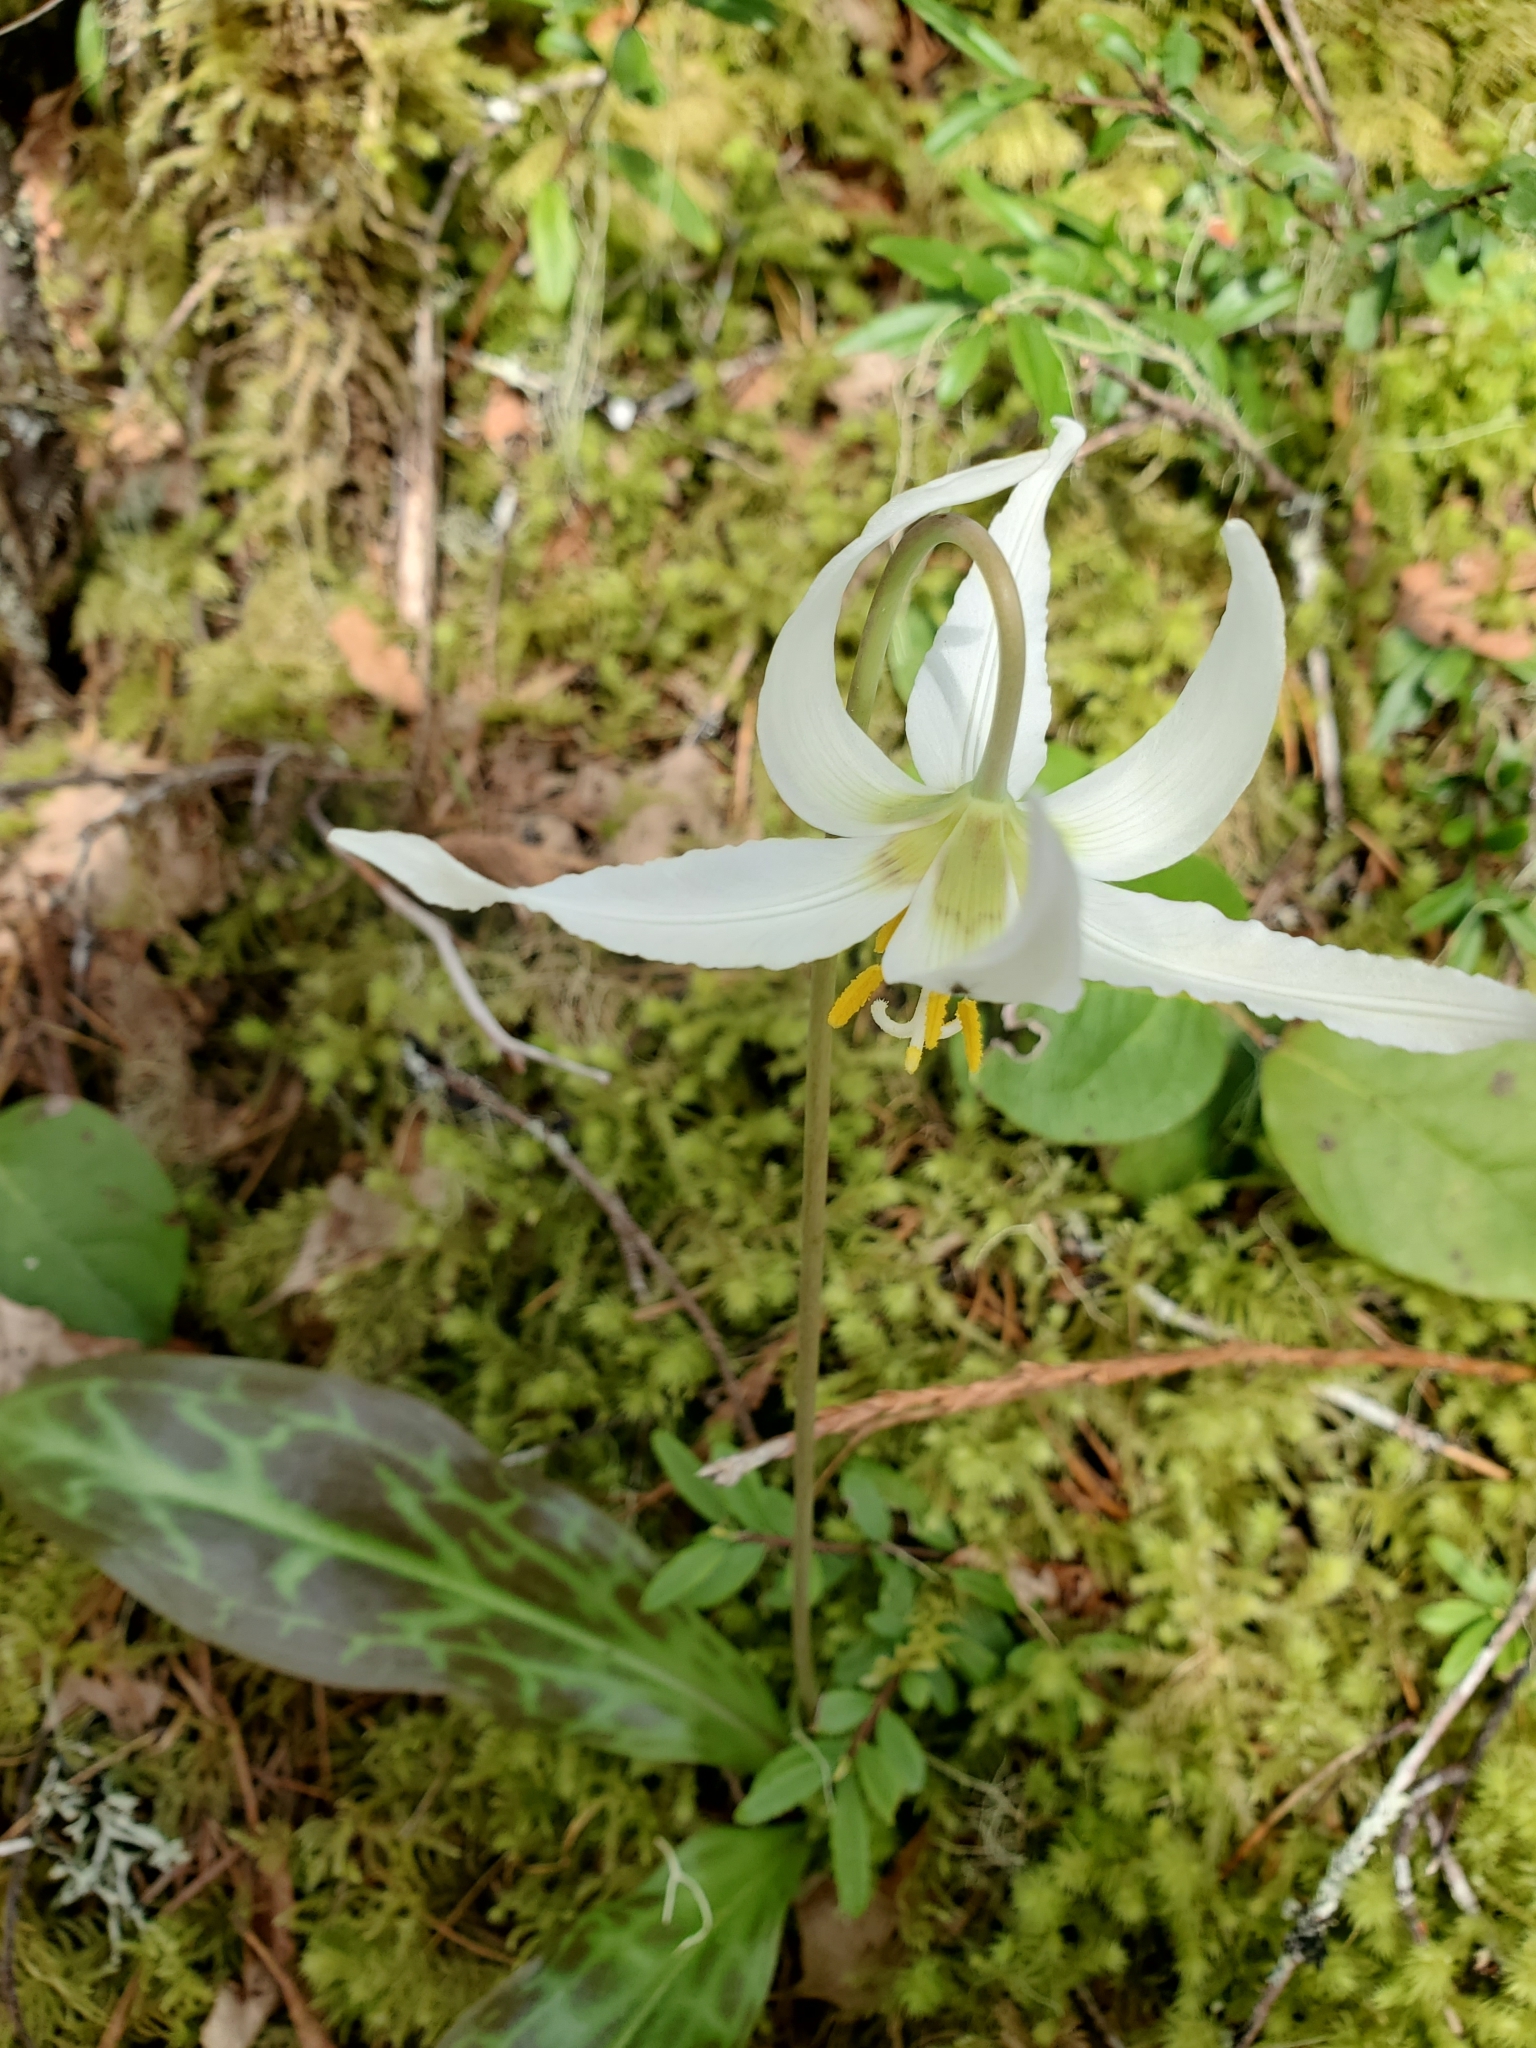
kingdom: Plantae
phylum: Tracheophyta
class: Liliopsida
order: Liliales
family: Liliaceae
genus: Erythronium
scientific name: Erythronium oregonum
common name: Giant adder's-tongue
